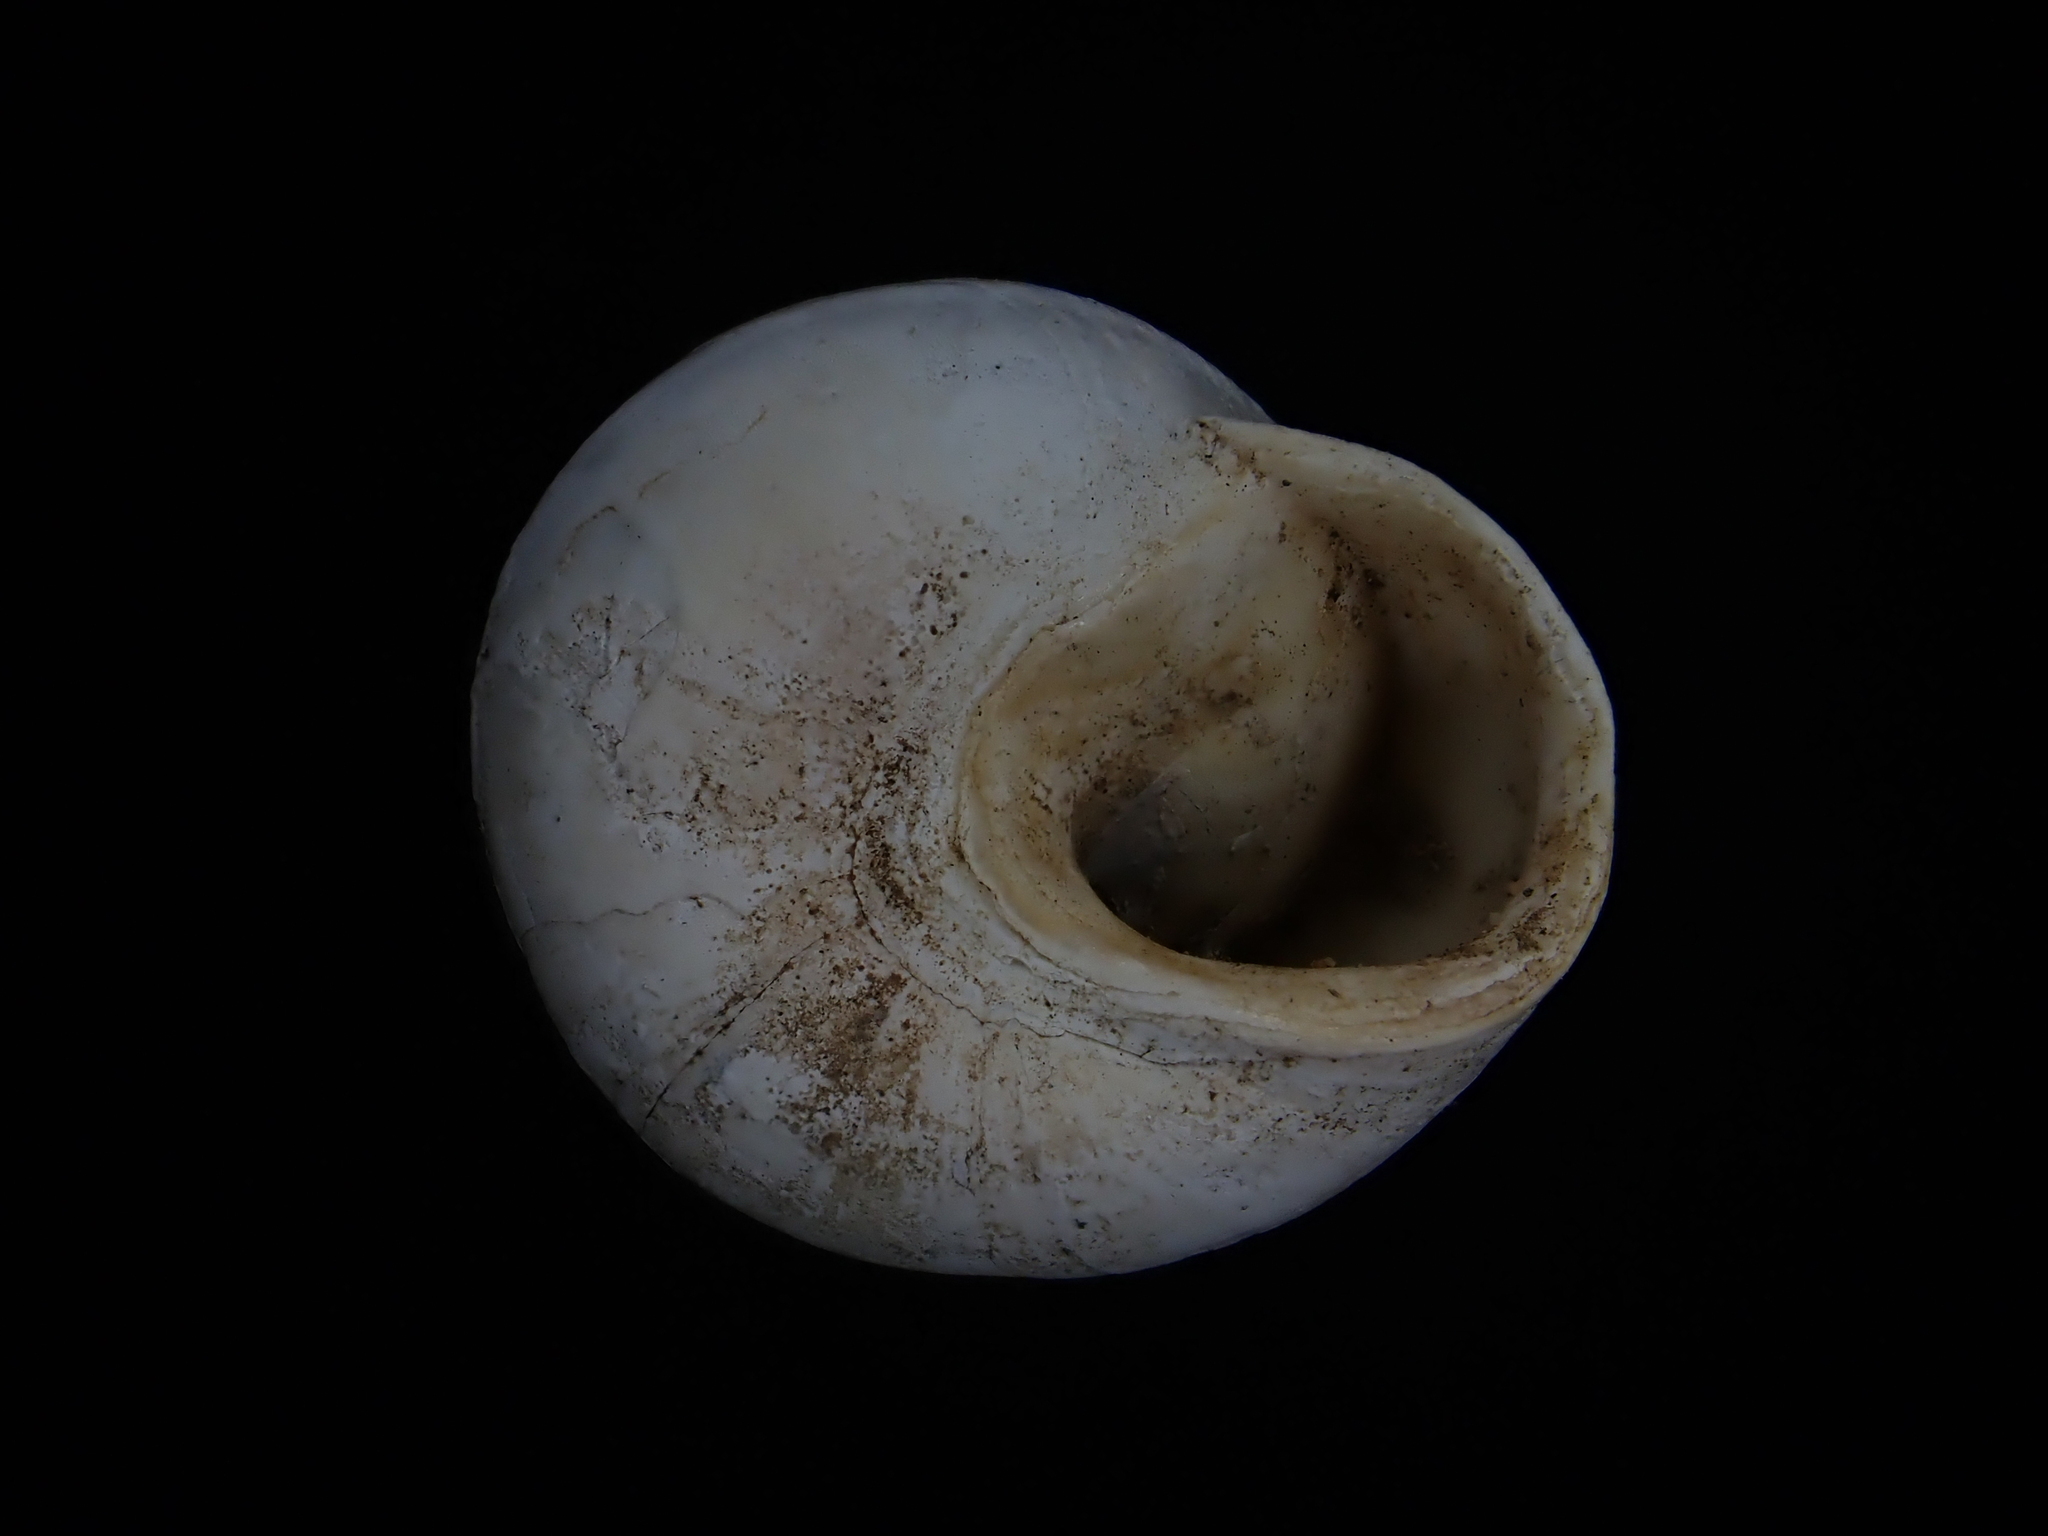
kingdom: Animalia
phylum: Mollusca
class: Gastropoda
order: Stylommatophora
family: Sphincterochilidae
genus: Sphincterochila
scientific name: Sphincterochila candidissima
